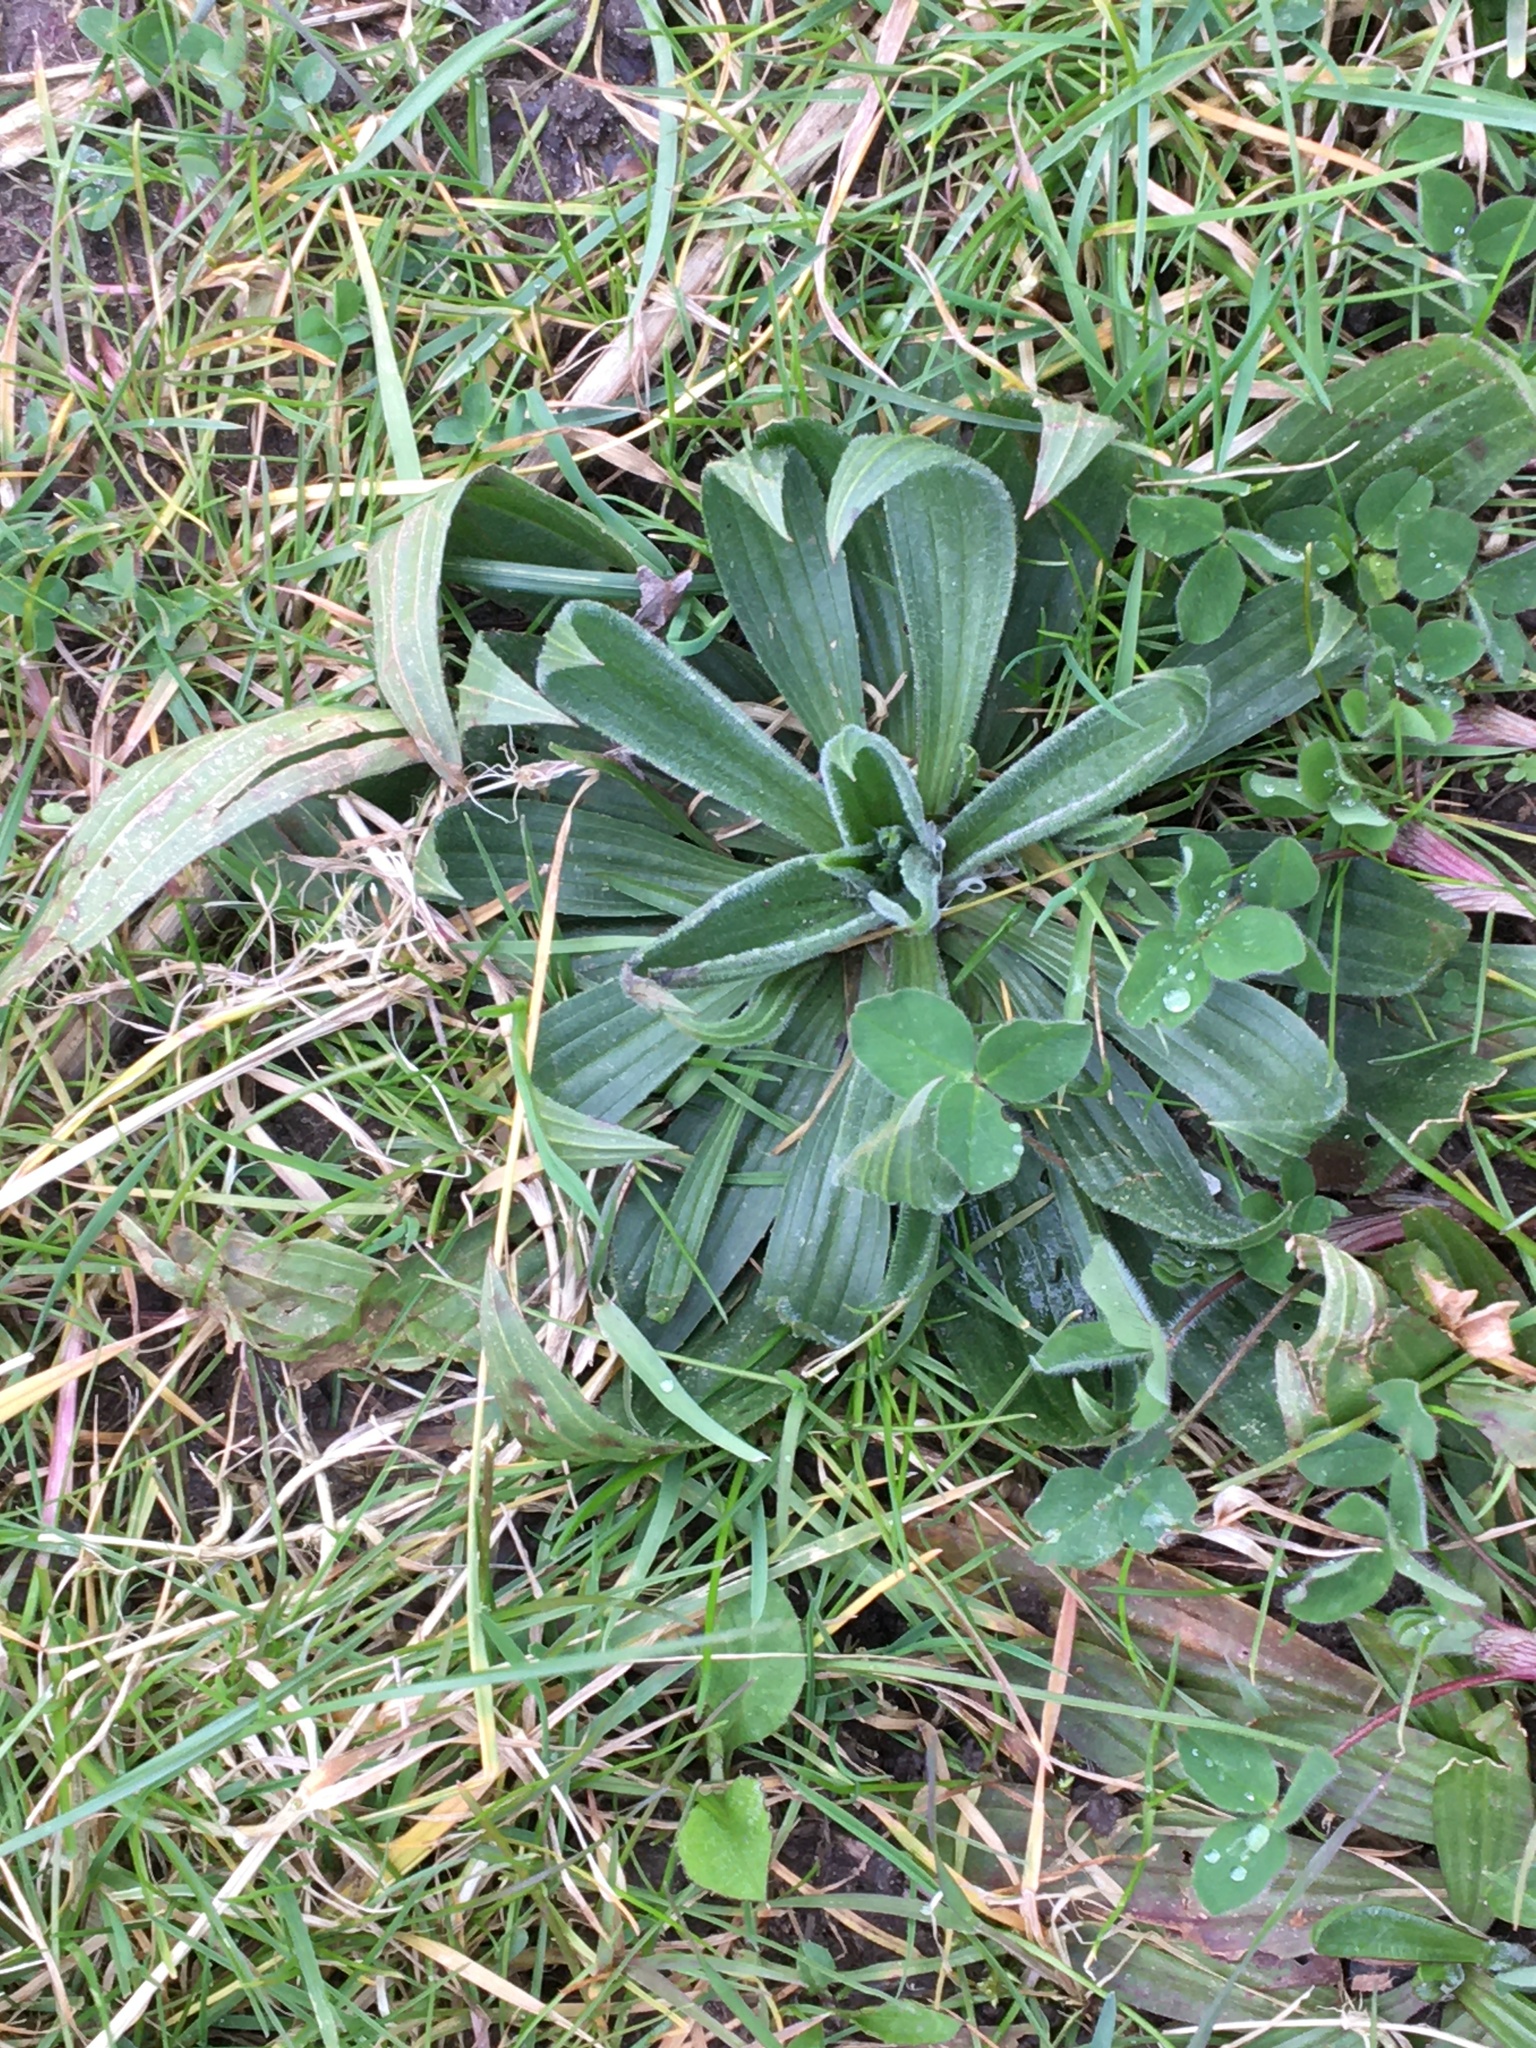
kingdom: Plantae
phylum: Tracheophyta
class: Magnoliopsida
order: Lamiales
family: Plantaginaceae
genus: Plantago
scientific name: Plantago lanceolata
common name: Ribwort plantain
